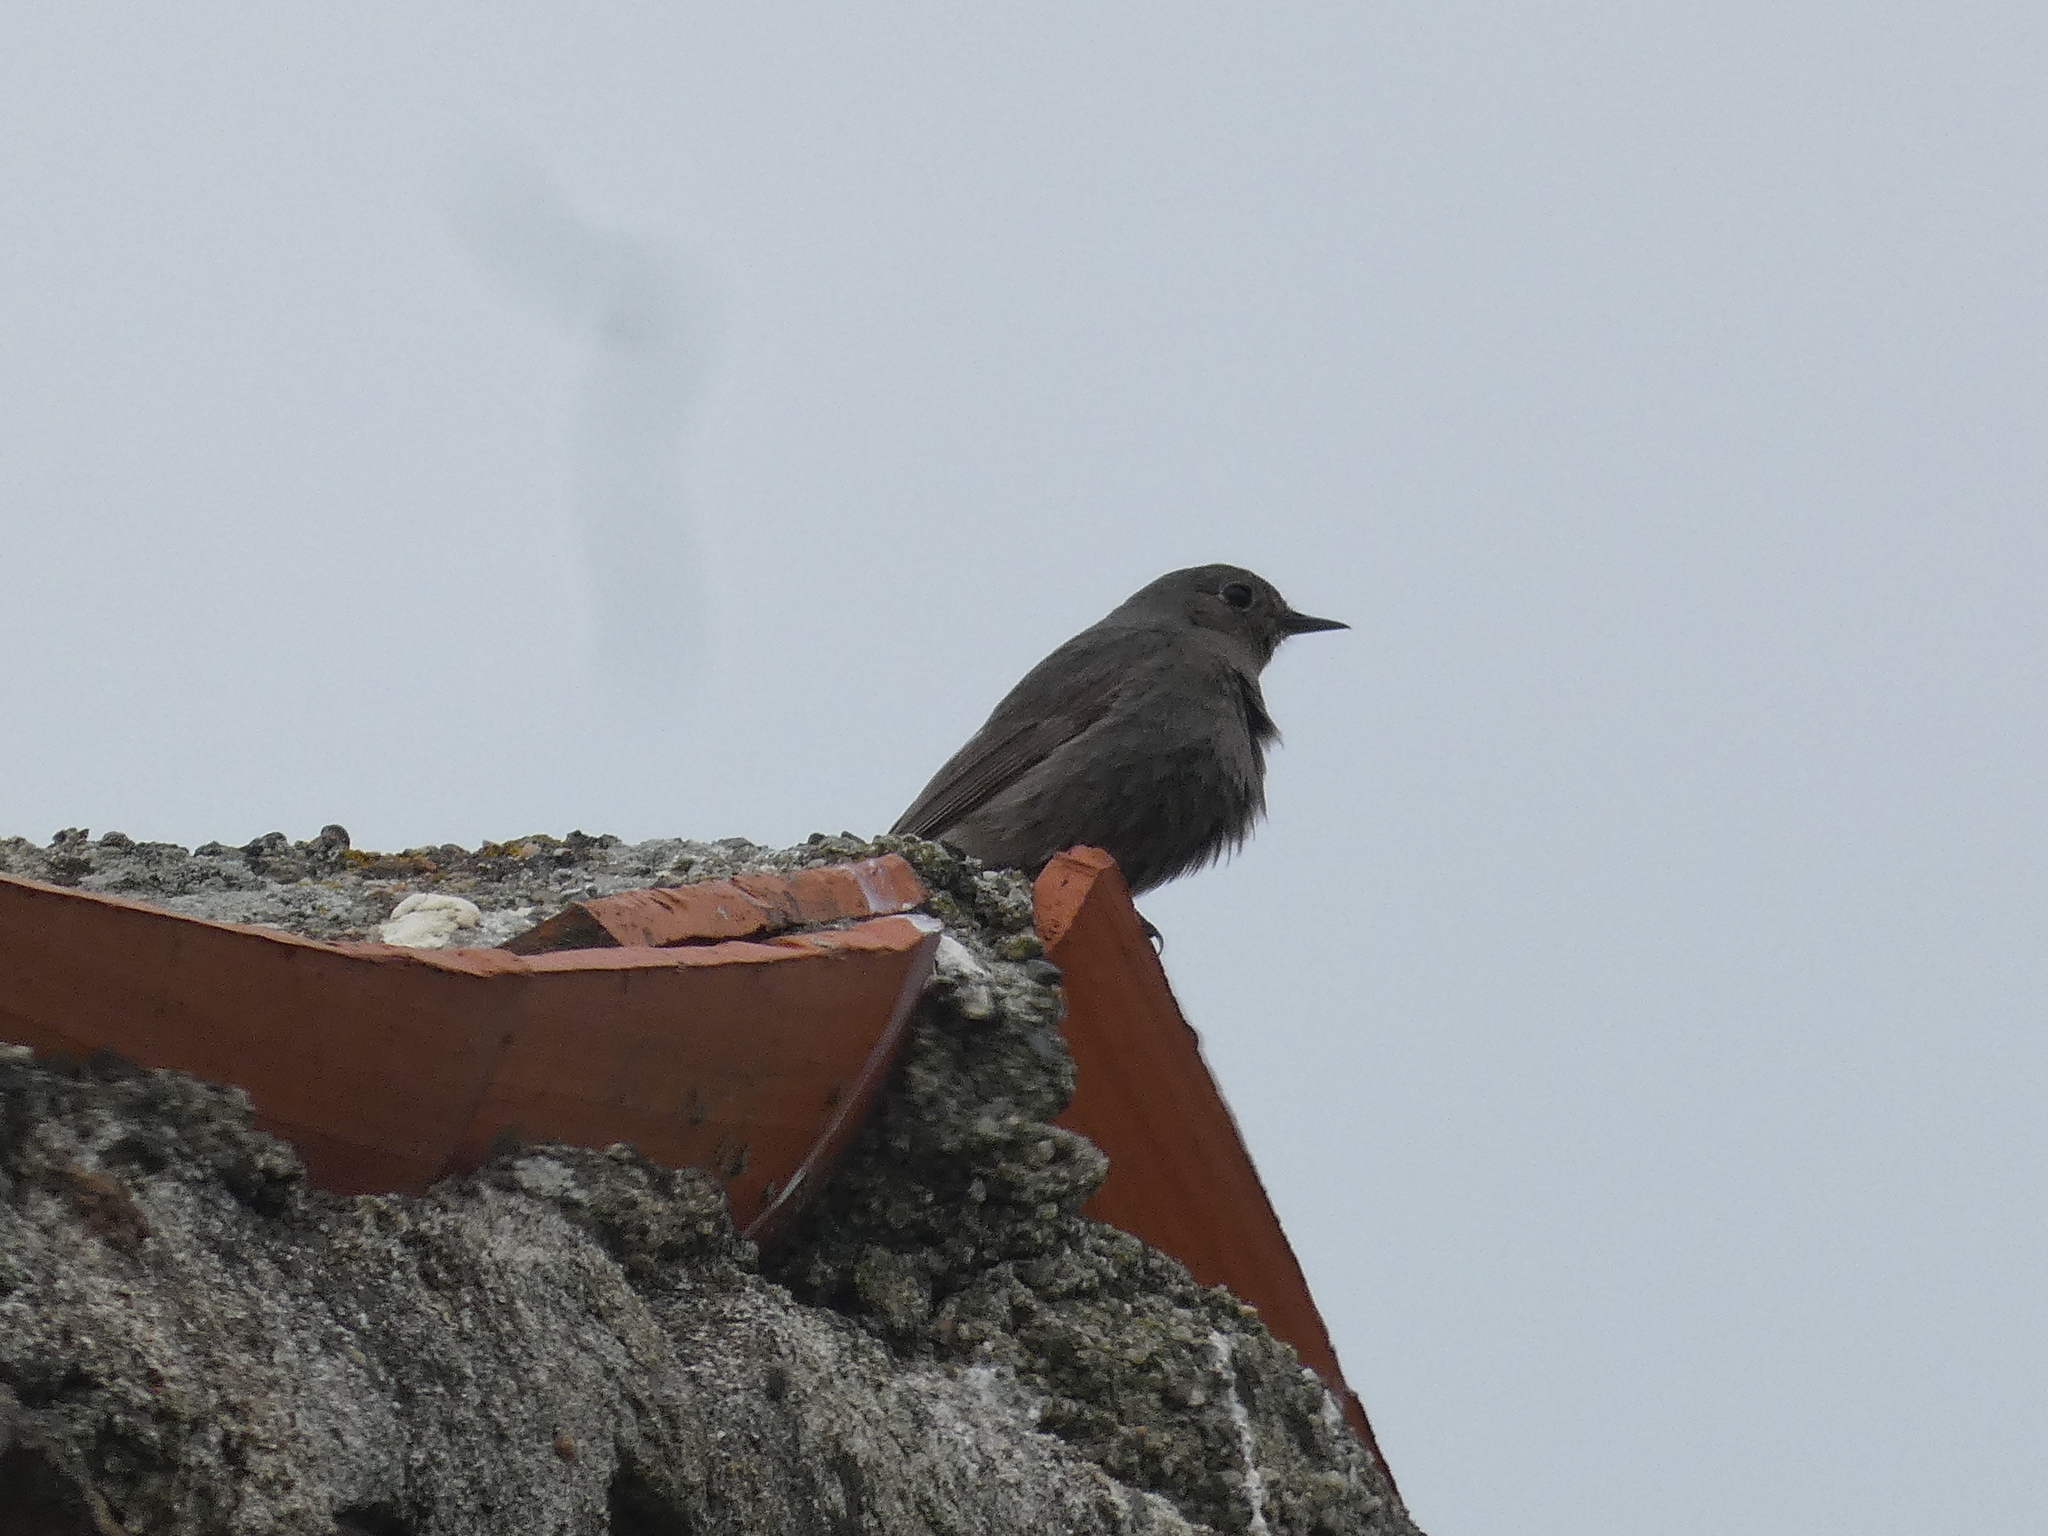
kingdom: Animalia
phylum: Chordata
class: Aves
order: Passeriformes
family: Muscicapidae
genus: Phoenicurus
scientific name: Phoenicurus ochruros
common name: Black redstart
